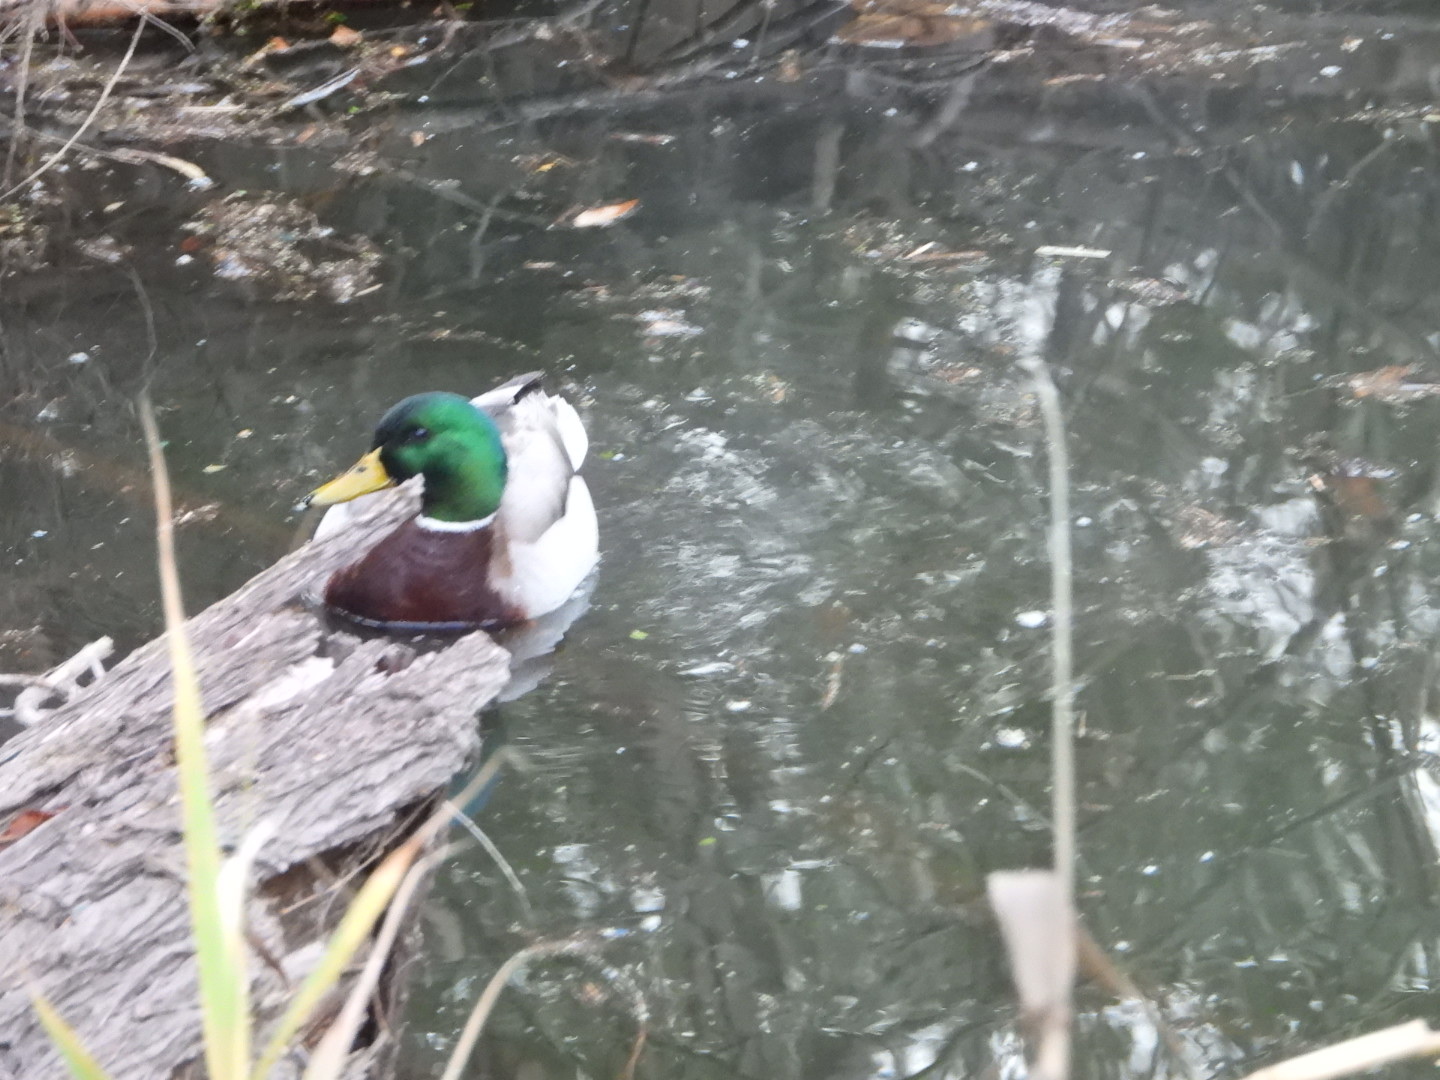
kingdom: Animalia
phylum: Chordata
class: Aves
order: Anseriformes
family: Anatidae
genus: Anas
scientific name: Anas platyrhynchos
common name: Mallard
